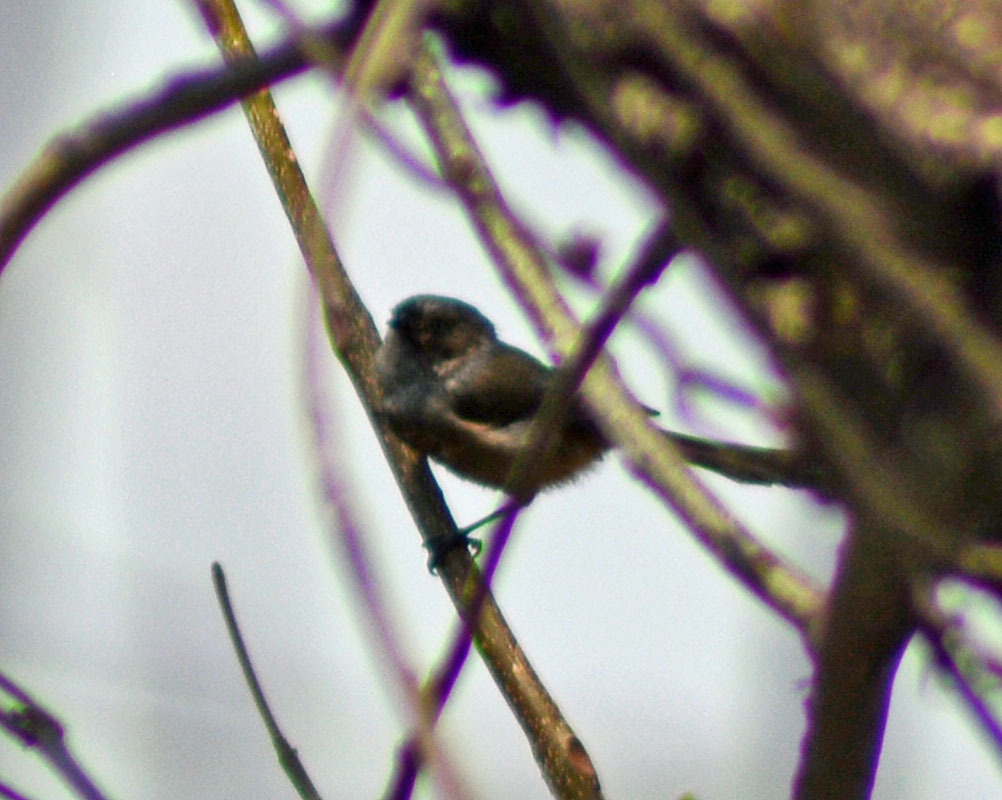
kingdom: Animalia
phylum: Chordata
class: Aves
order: Passeriformes
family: Aegithalidae
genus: Psaltriparus
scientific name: Psaltriparus minimus
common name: American bushtit
